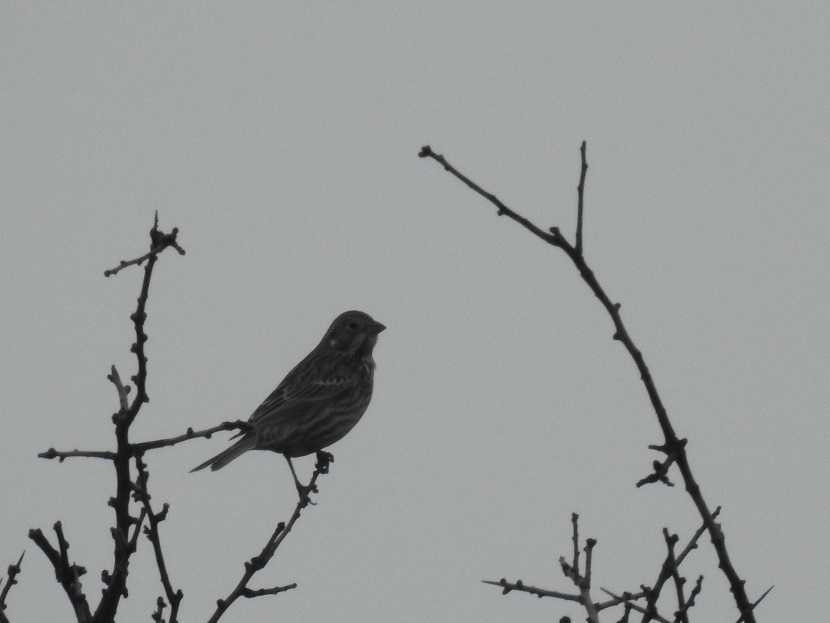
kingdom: Animalia
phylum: Chordata
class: Aves
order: Passeriformes
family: Emberizidae
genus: Emberiza
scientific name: Emberiza calandra
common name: Corn bunting
